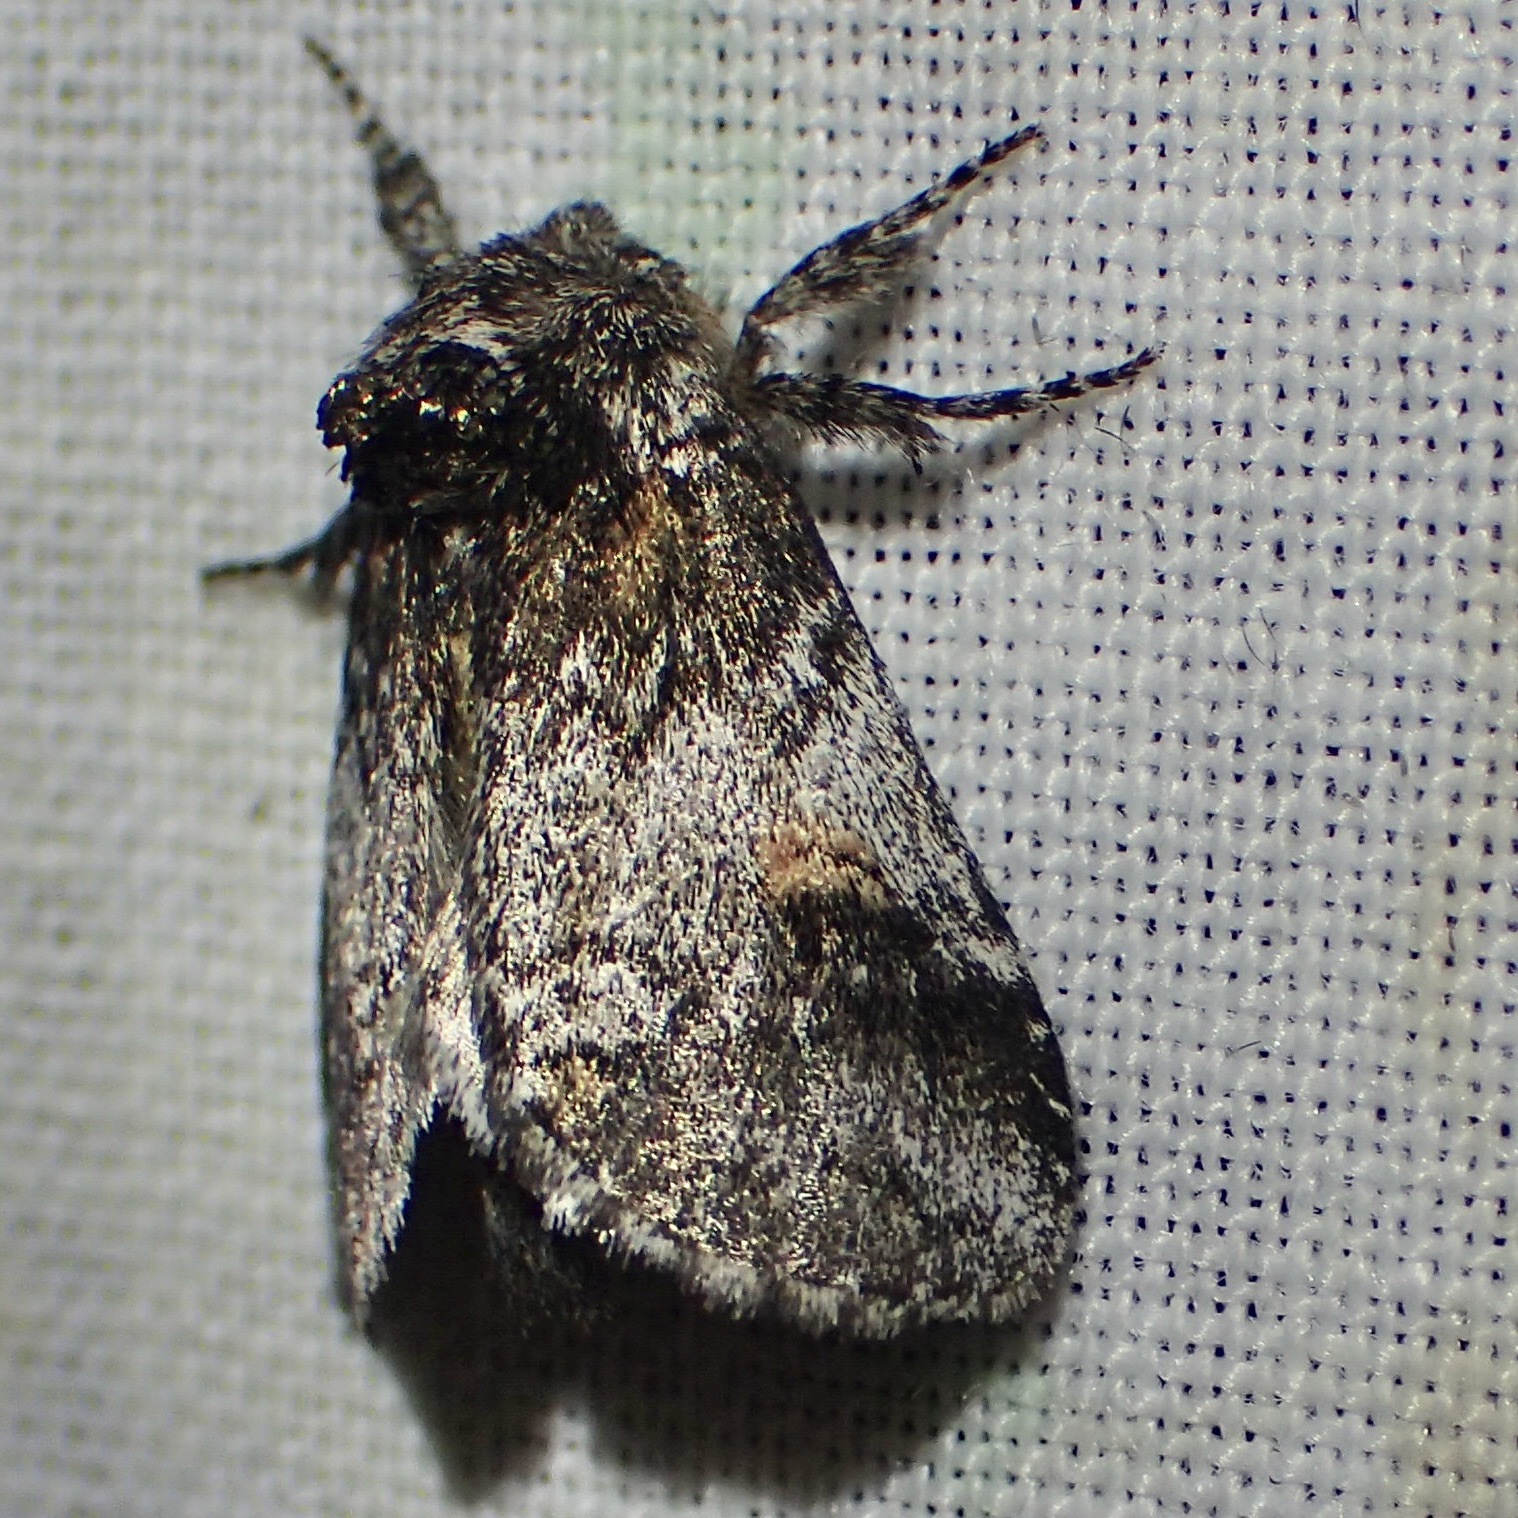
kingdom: Animalia
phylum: Arthropoda
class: Insecta
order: Lepidoptera
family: Notodontidae
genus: Kalkoma
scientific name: Kalkoma zapata
